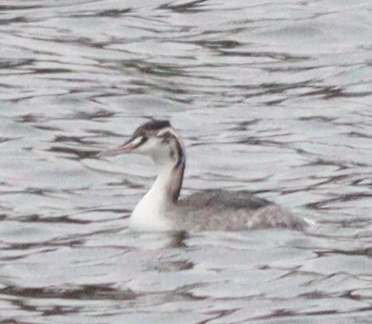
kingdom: Animalia
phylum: Chordata
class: Aves
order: Podicipediformes
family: Podicipedidae
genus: Podiceps
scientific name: Podiceps cristatus
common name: Great crested grebe
